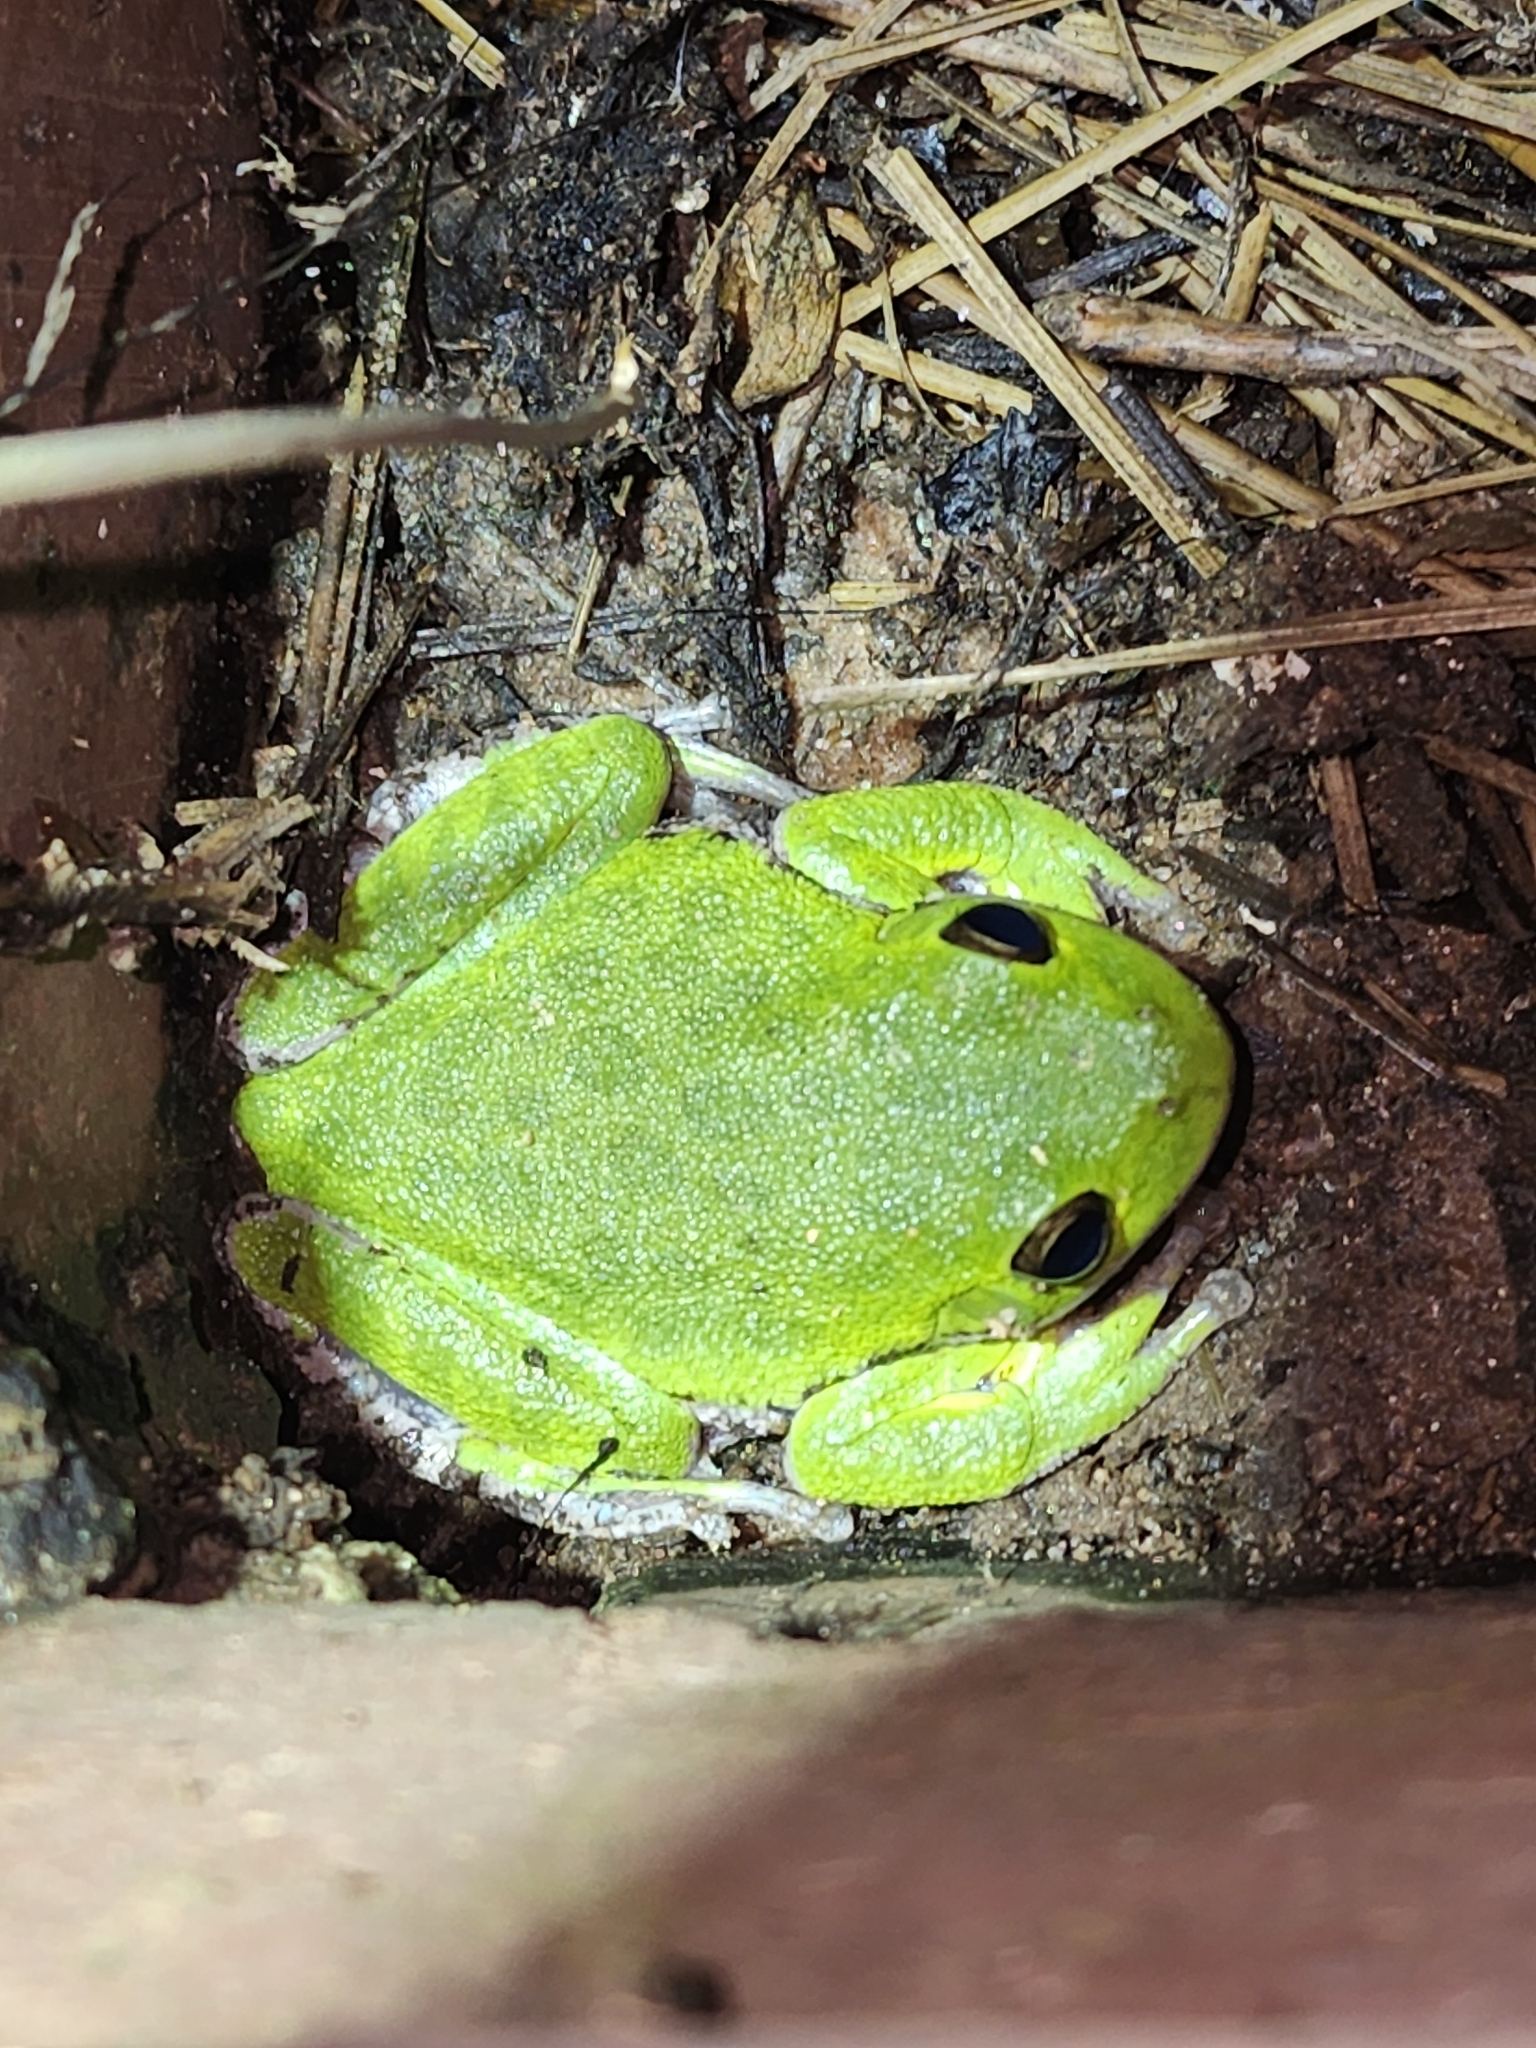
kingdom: Animalia
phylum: Chordata
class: Amphibia
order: Anura
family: Hylidae
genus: Dryophytes
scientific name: Dryophytes gratiosus
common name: Barking treefrog
